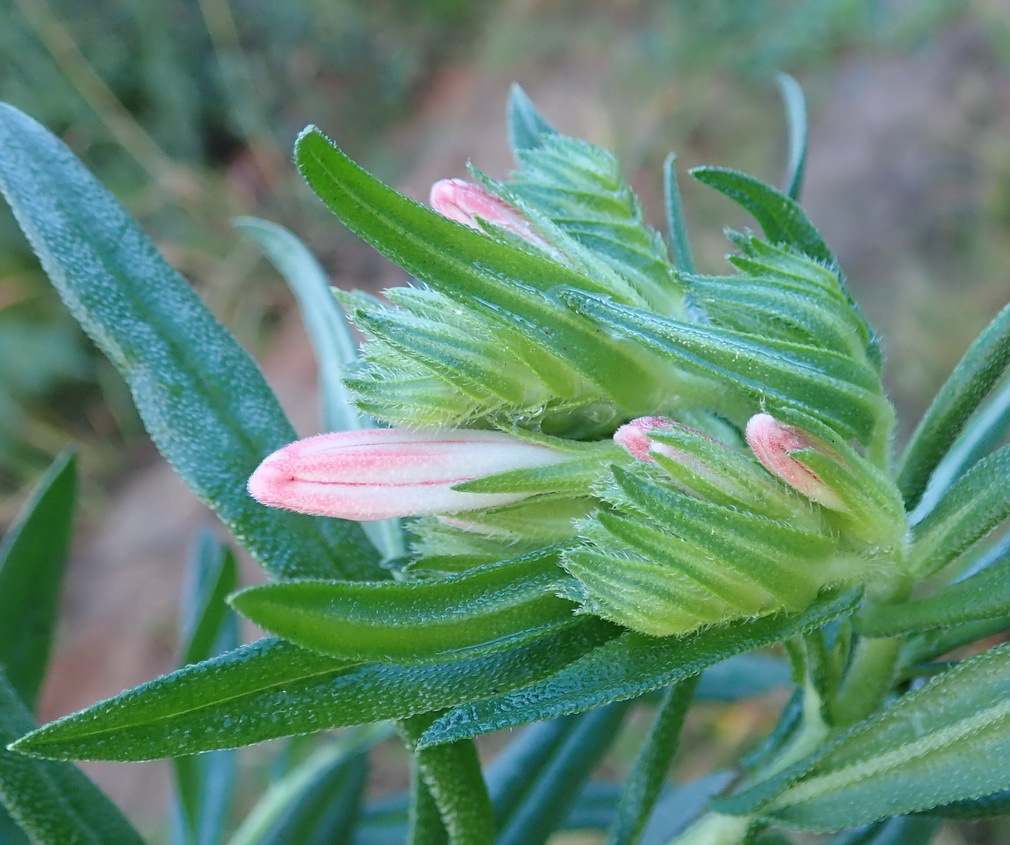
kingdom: Plantae
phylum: Tracheophyta
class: Magnoliopsida
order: Boraginales
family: Boraginaceae
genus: Lobostemon
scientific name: Lobostemon belliformis
